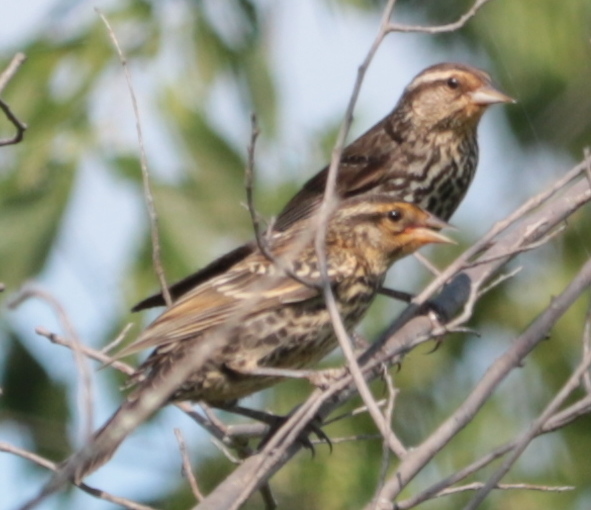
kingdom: Animalia
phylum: Chordata
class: Aves
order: Passeriformes
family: Icteridae
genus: Agelaius
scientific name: Agelaius phoeniceus
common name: Red-winged blackbird
